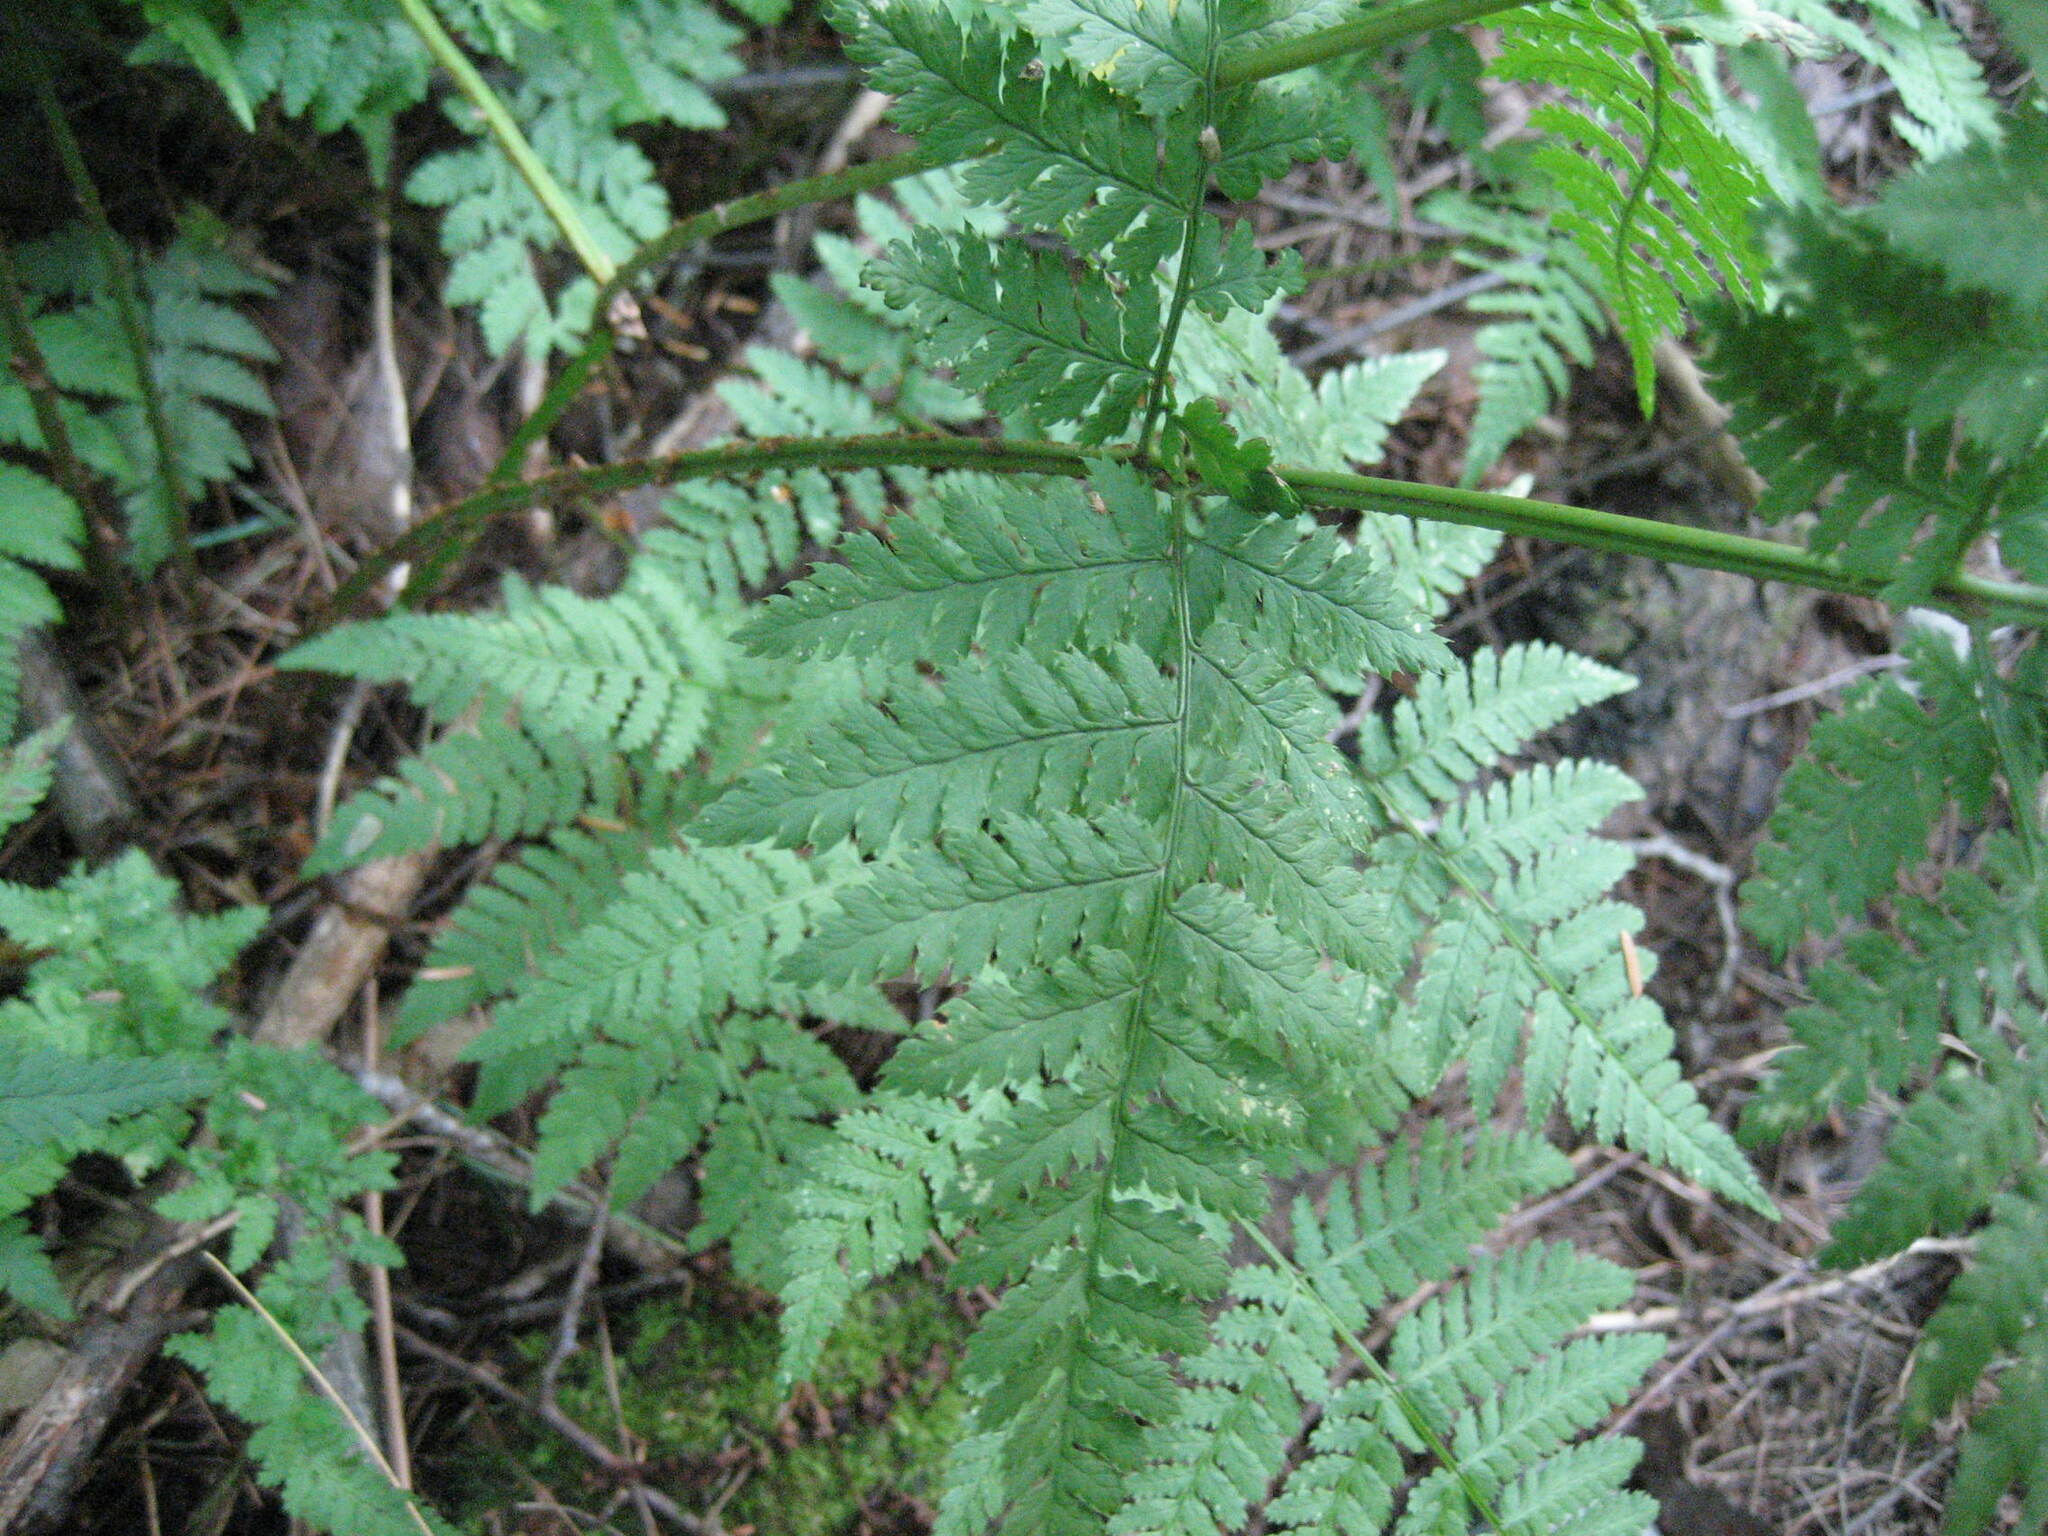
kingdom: Plantae
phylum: Tracheophyta
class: Polypodiopsida
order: Polypodiales
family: Dryopteridaceae
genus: Dryopteris
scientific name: Dryopteris intermedia
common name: Evergreen wood fern
